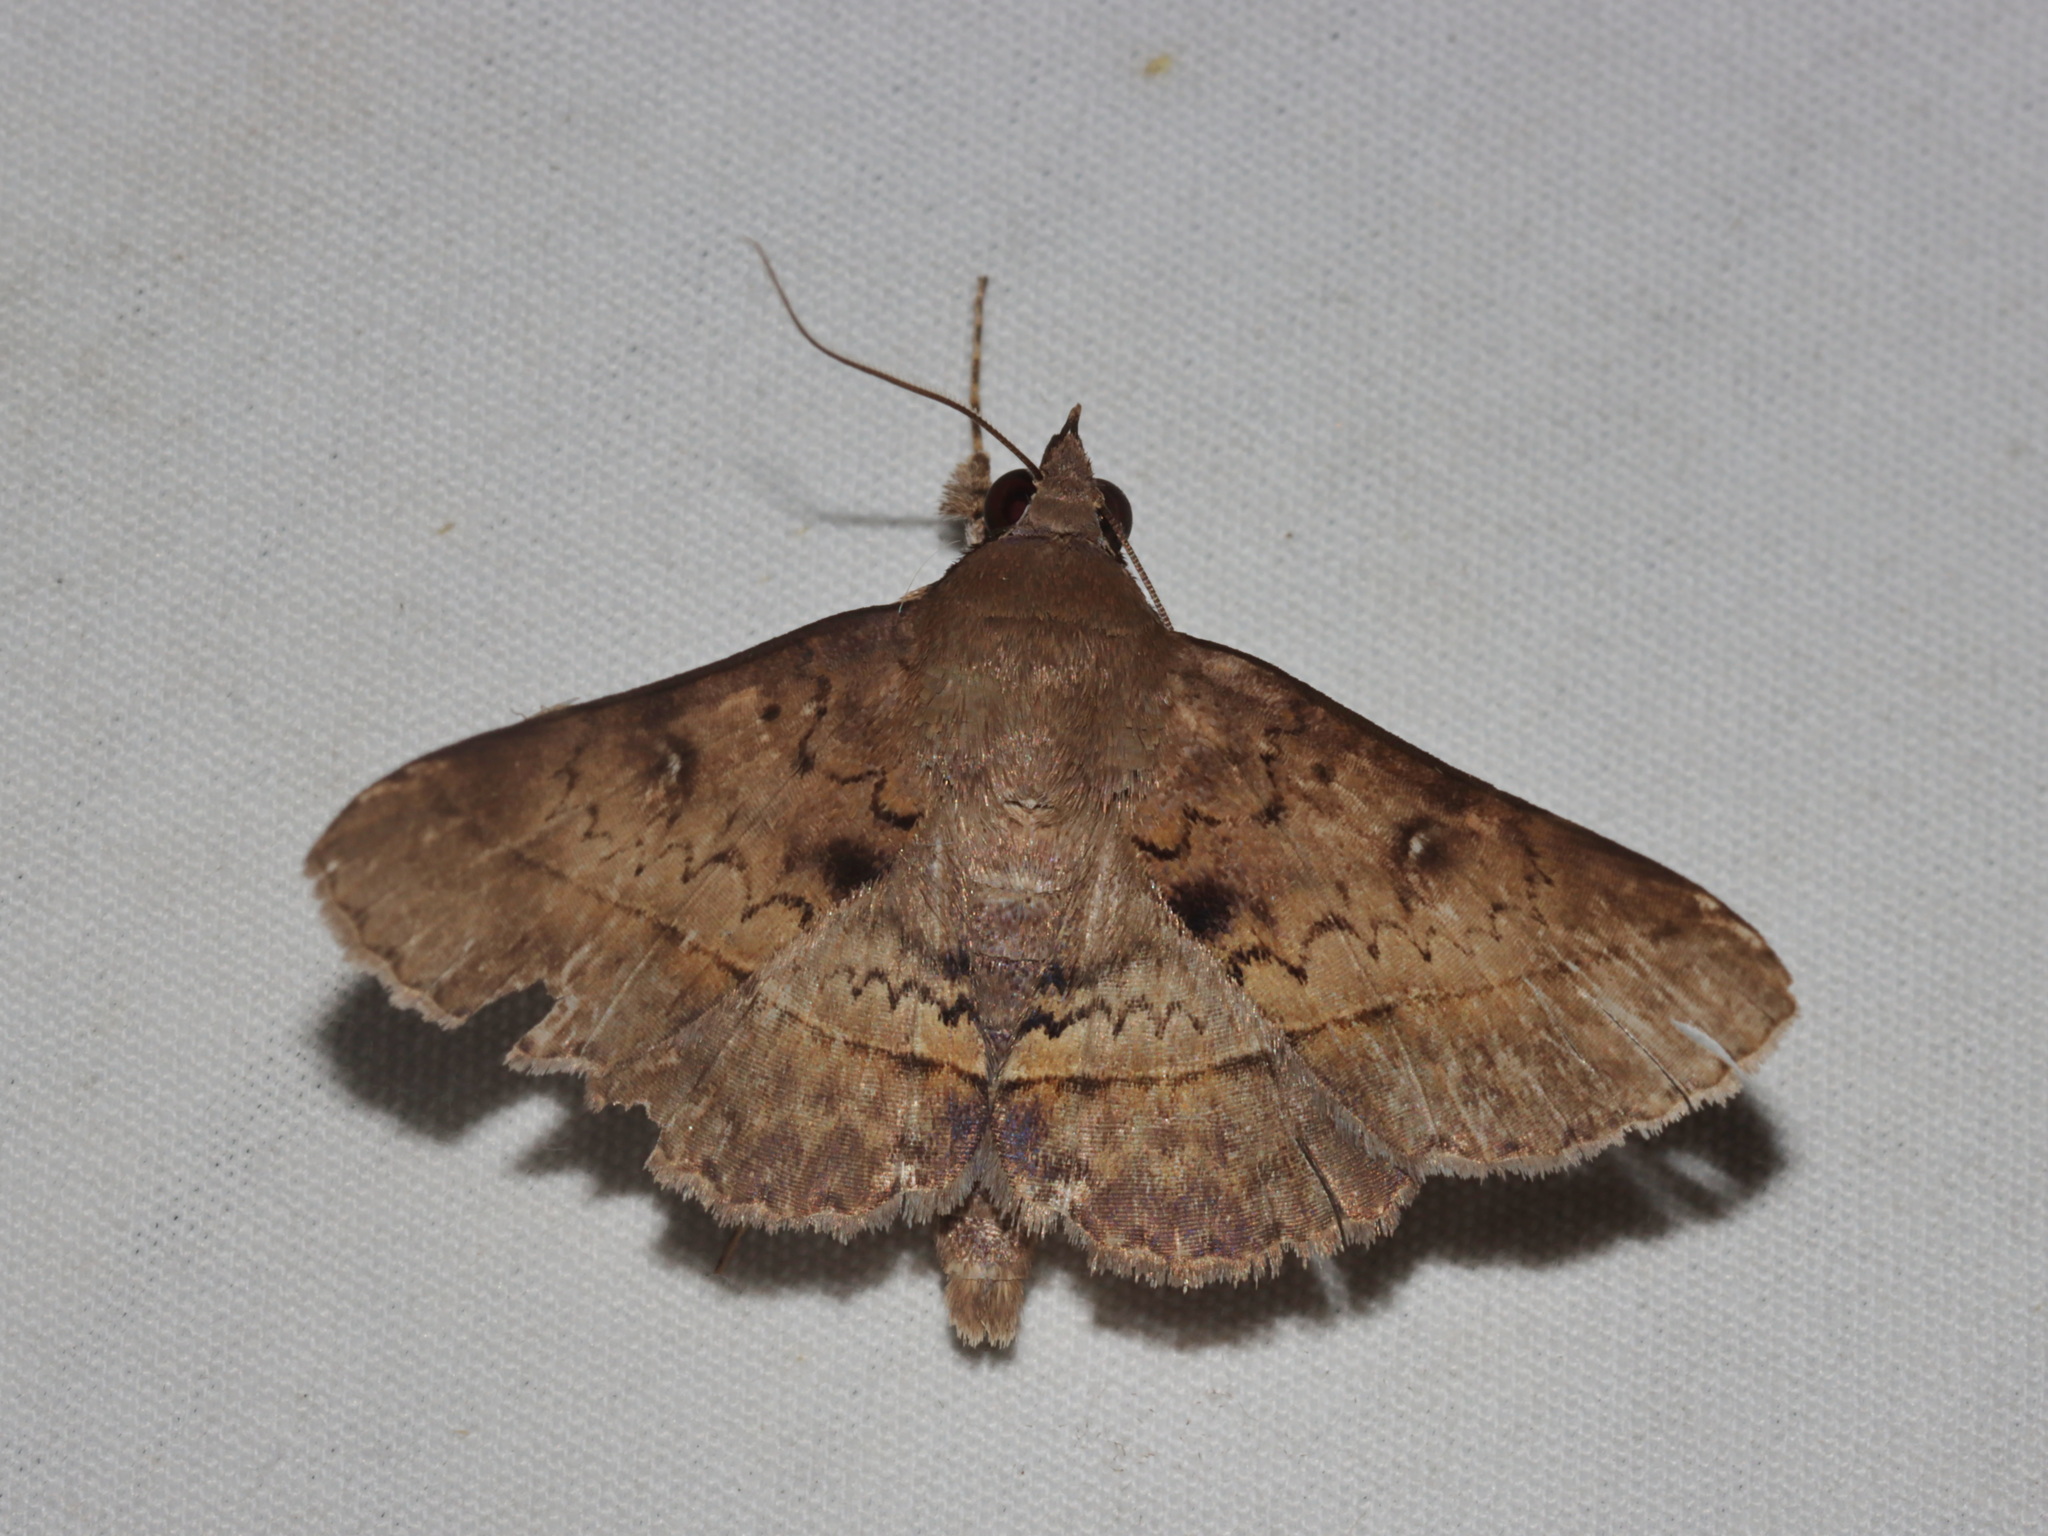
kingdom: Animalia
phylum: Arthropoda
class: Insecta
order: Lepidoptera
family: Erebidae
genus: Hypospila
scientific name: Hypospila bolinoides
